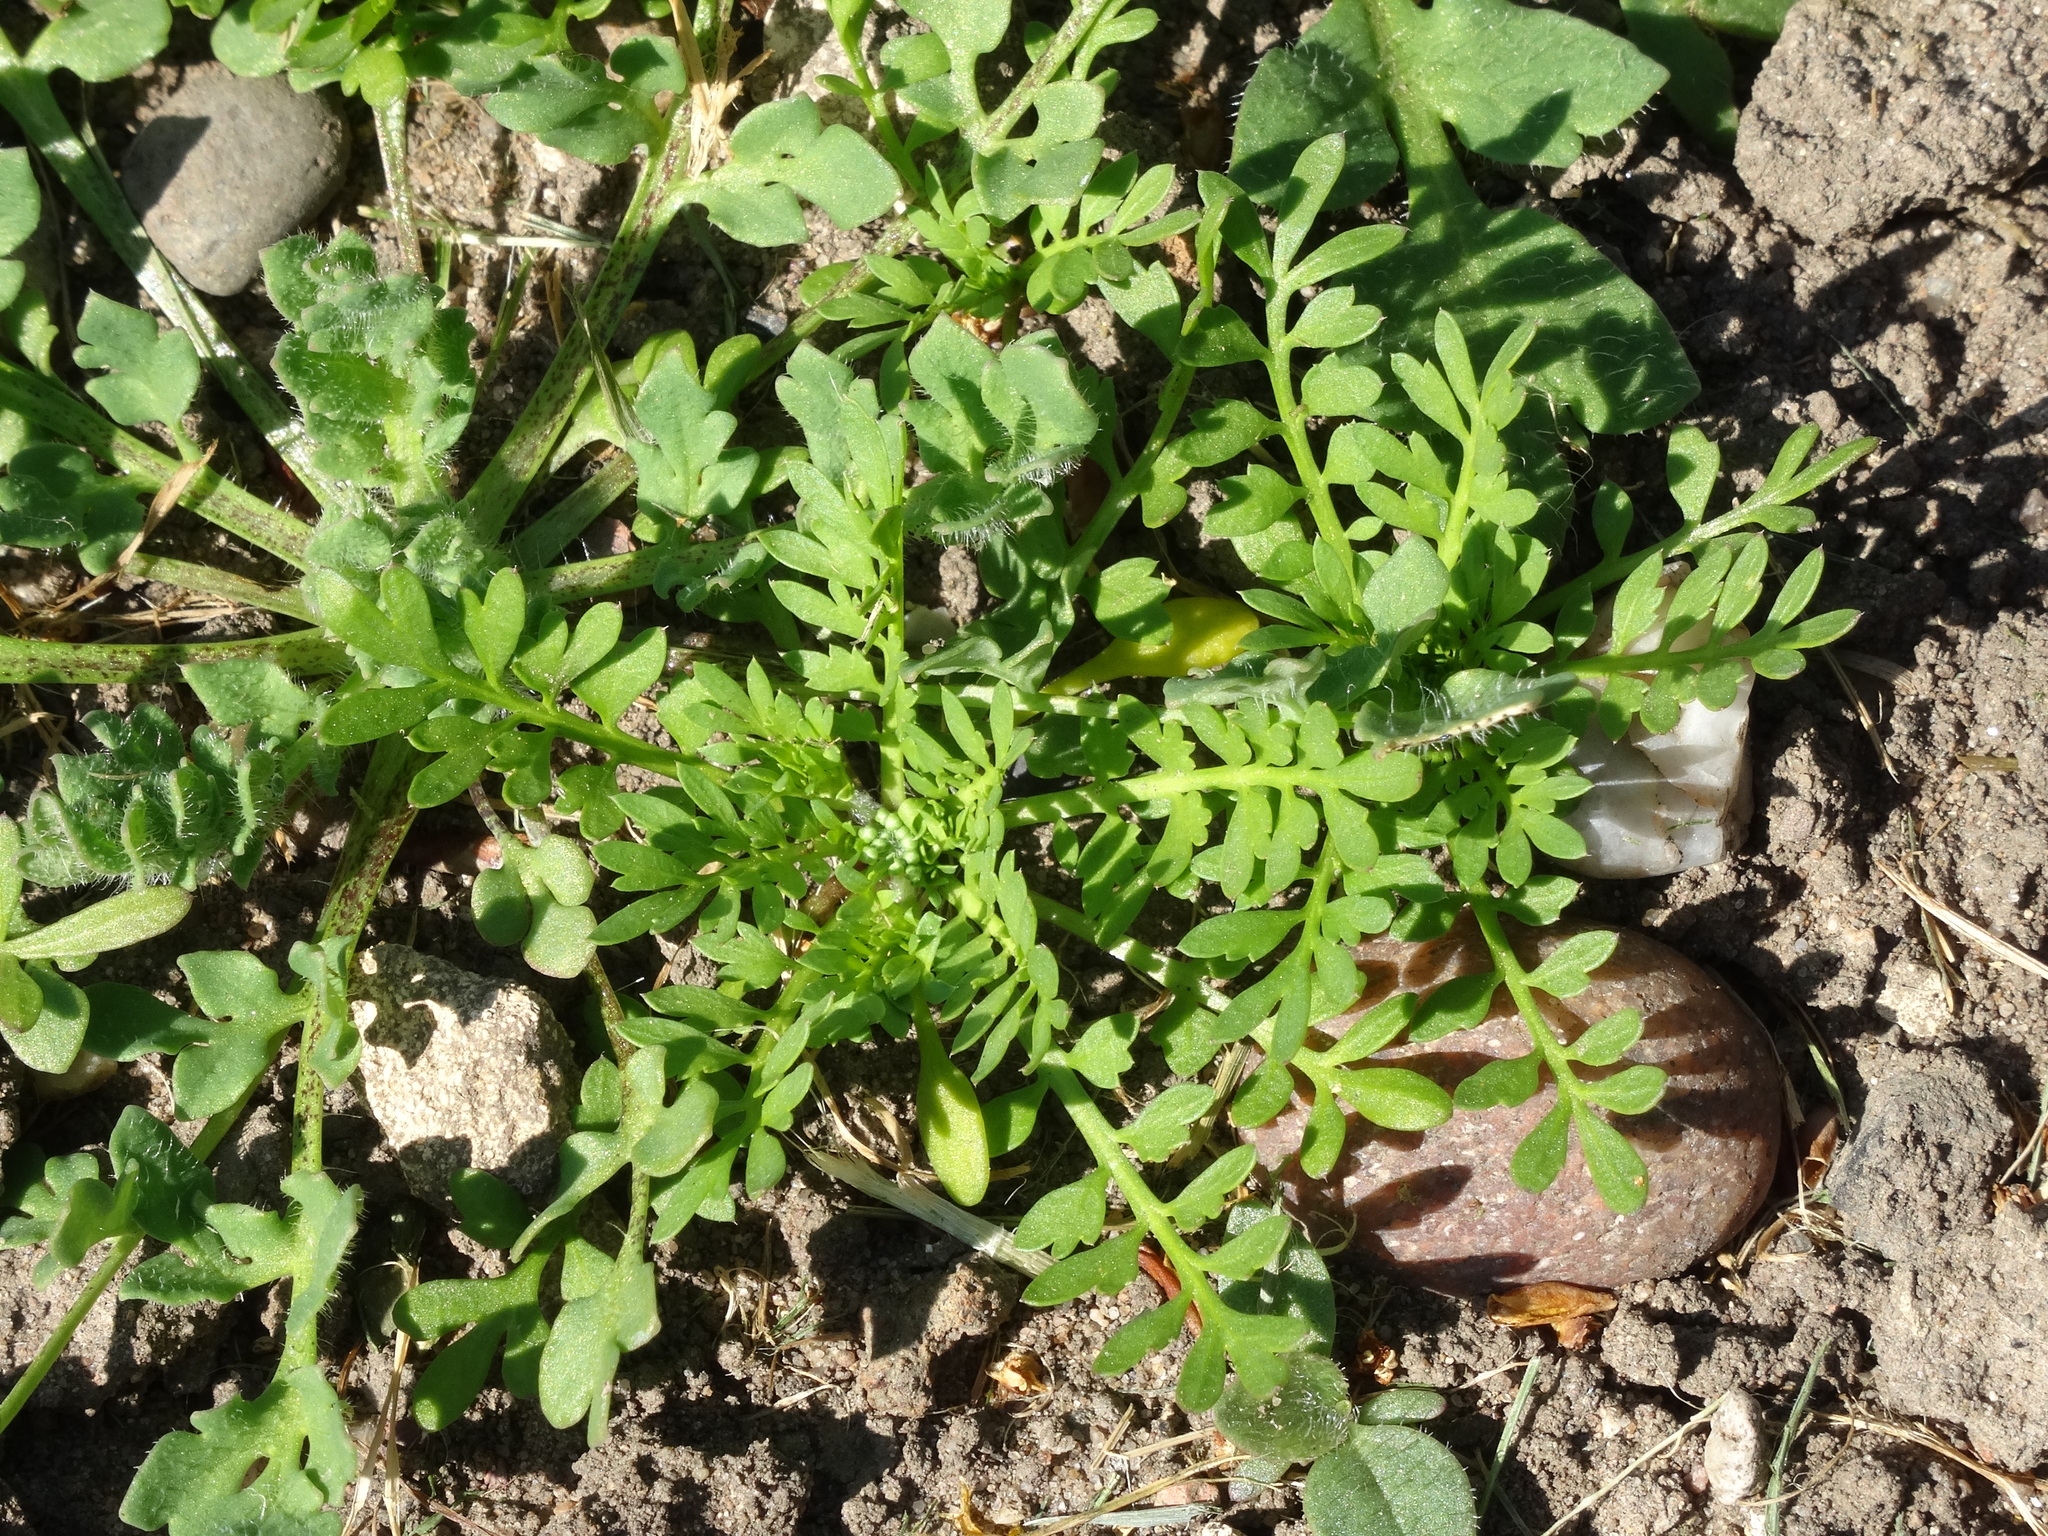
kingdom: Plantae
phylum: Tracheophyta
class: Magnoliopsida
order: Brassicales
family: Brassicaceae
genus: Lepidium
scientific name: Lepidium didymum
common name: Lesser swinecress
